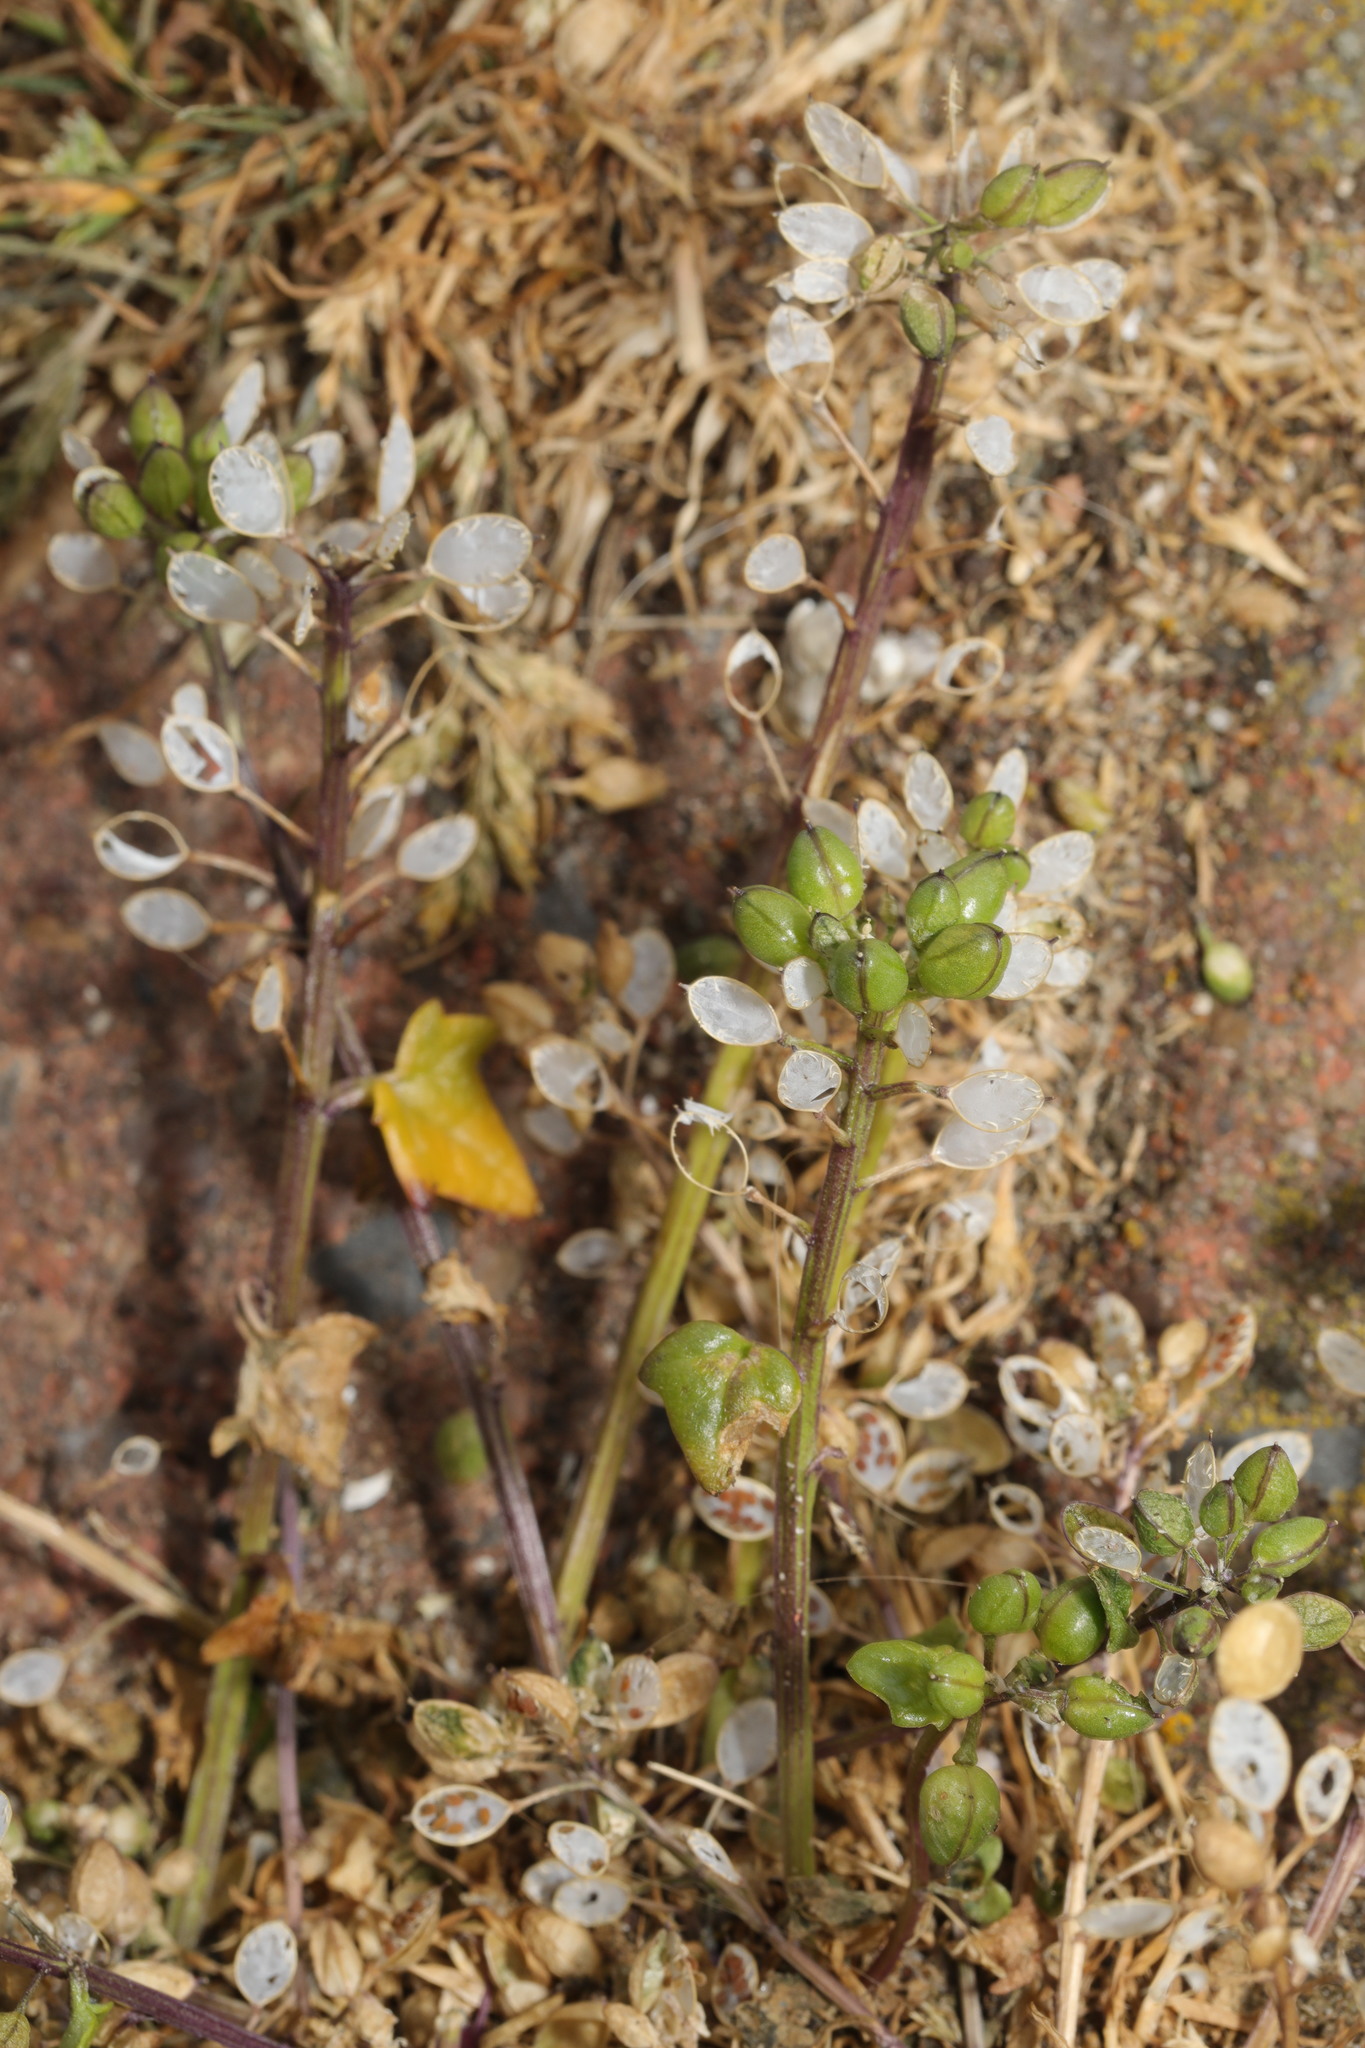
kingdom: Plantae
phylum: Tracheophyta
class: Magnoliopsida
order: Brassicales
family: Brassicaceae
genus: Cochlearia
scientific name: Cochlearia danica
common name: Early scurvygrass
